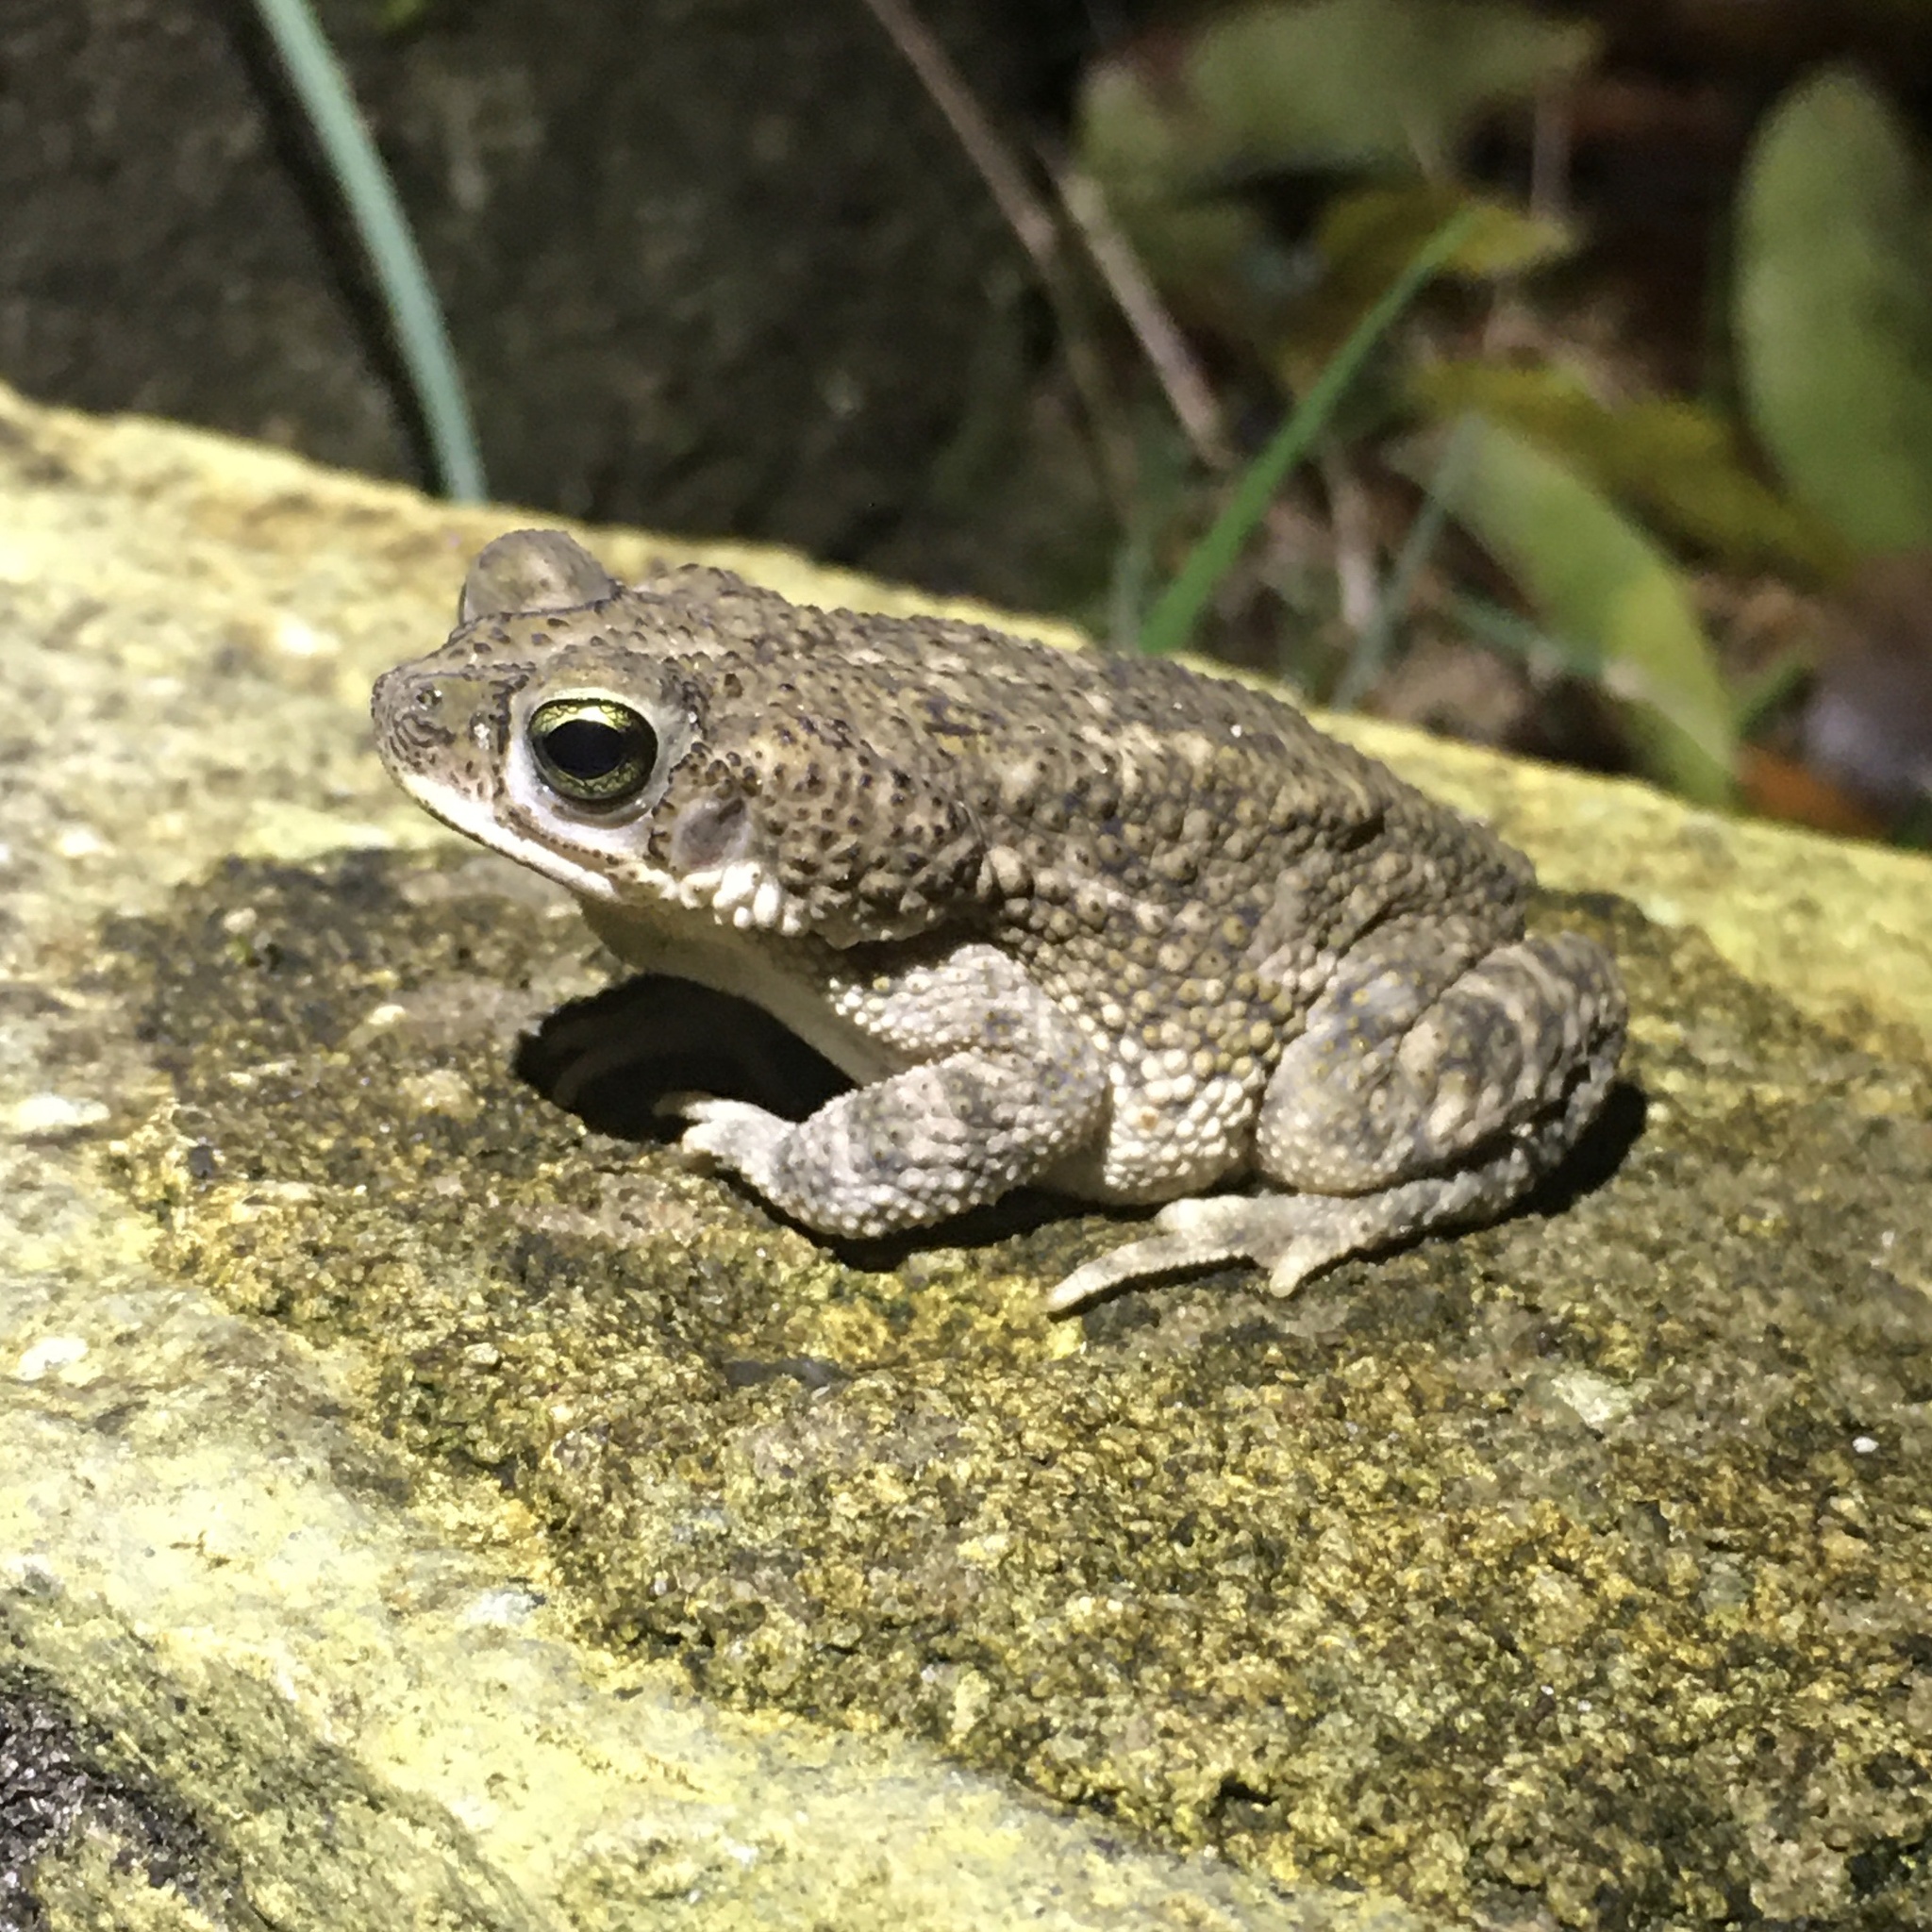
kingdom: Animalia
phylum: Chordata
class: Amphibia
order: Anura
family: Bufonidae
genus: Rhinella
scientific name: Rhinella granulosa
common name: Common lesser toad
